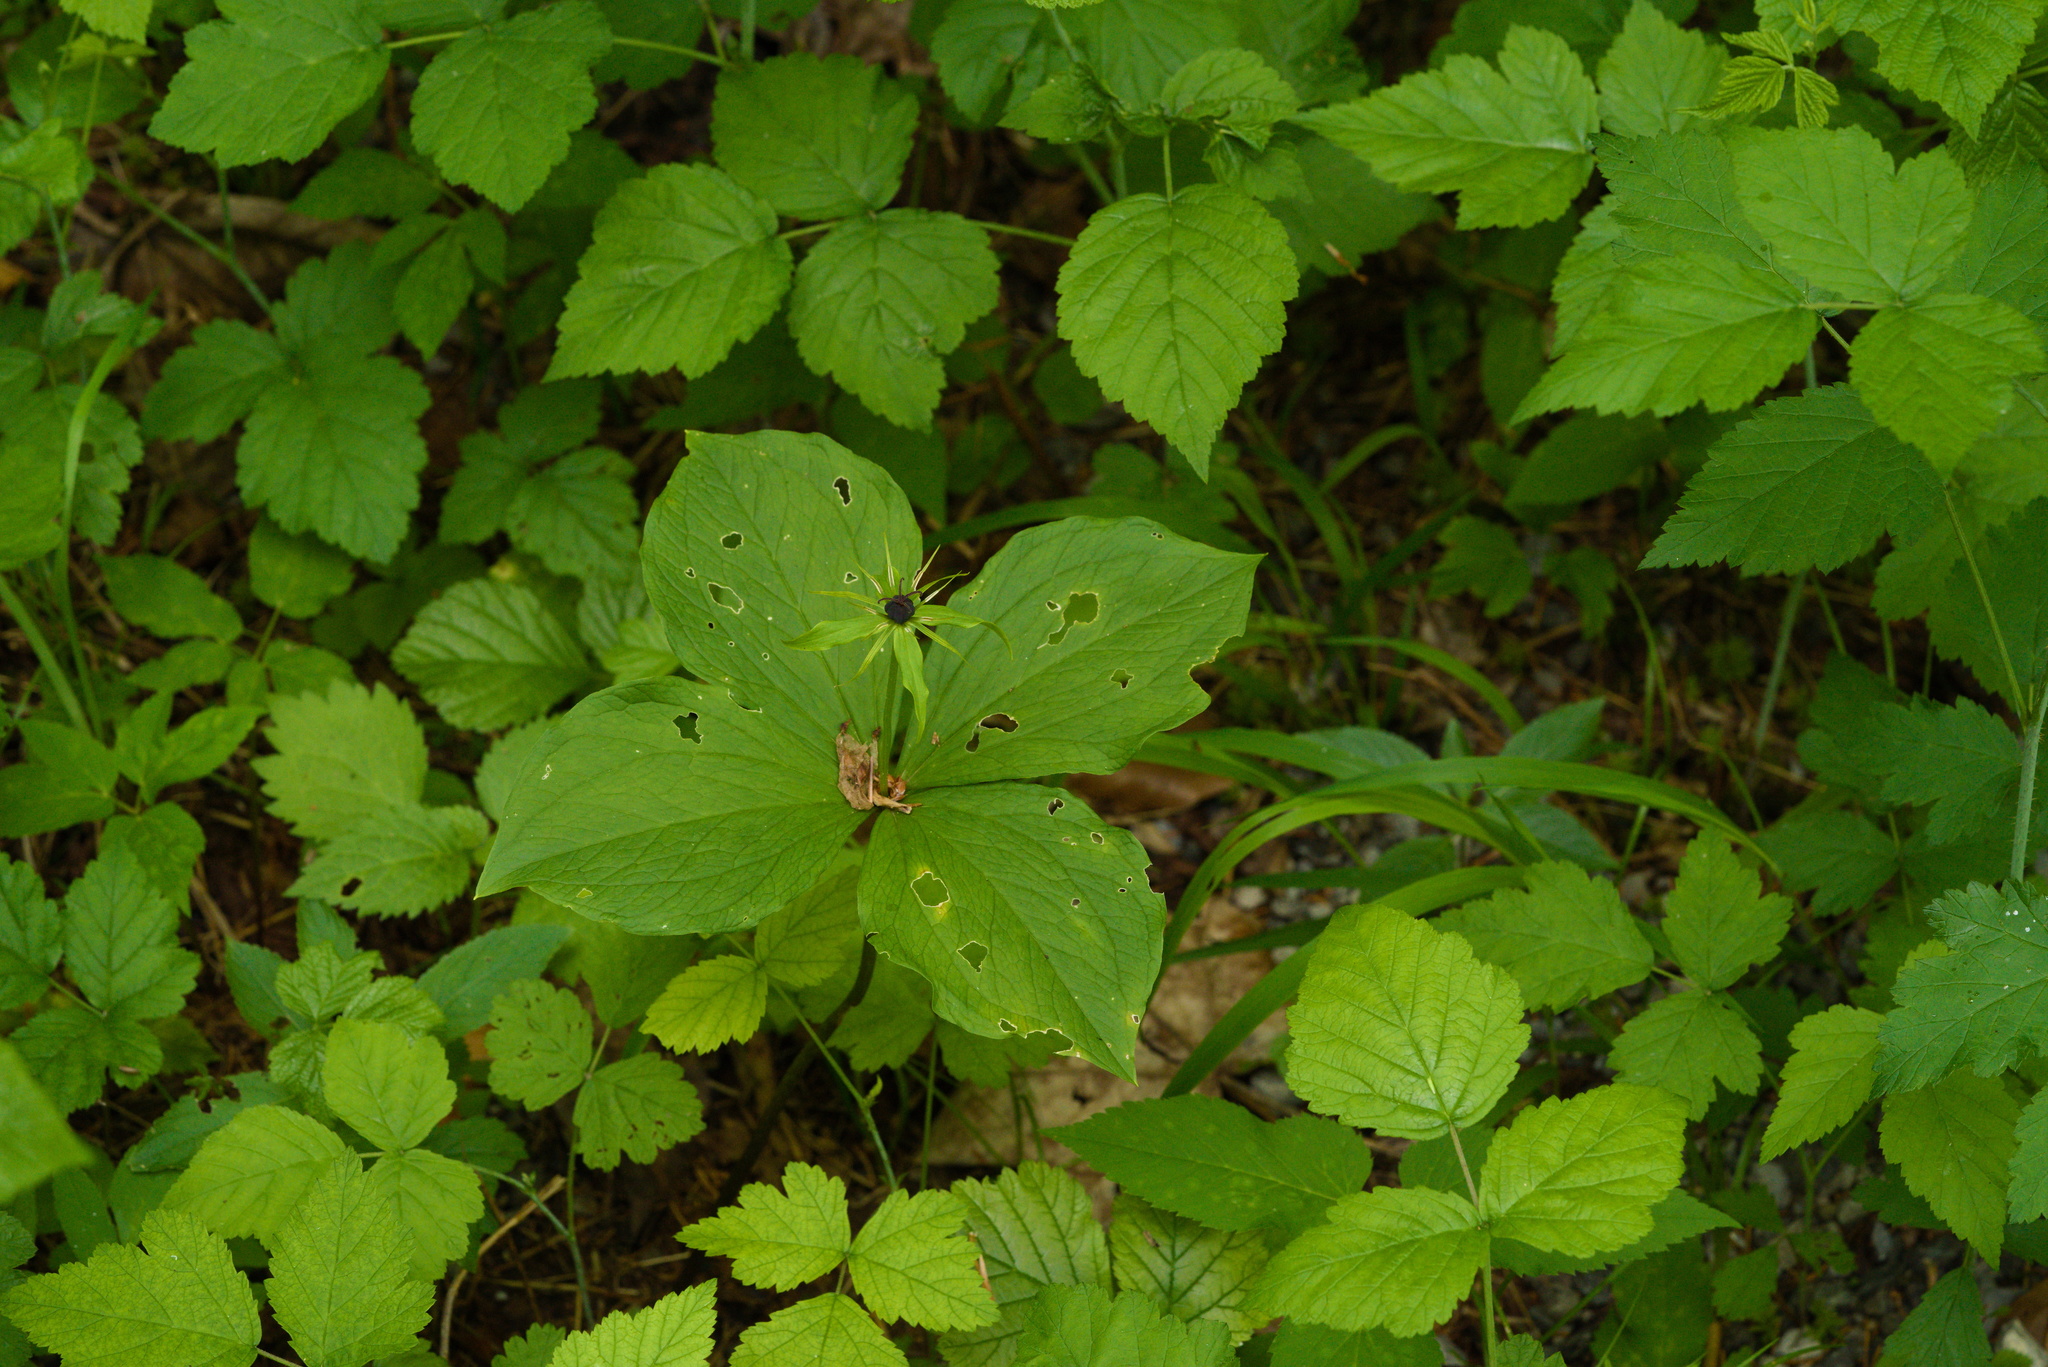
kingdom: Plantae
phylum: Tracheophyta
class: Liliopsida
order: Liliales
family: Melanthiaceae
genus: Paris
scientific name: Paris quadrifolia
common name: Herb-paris
